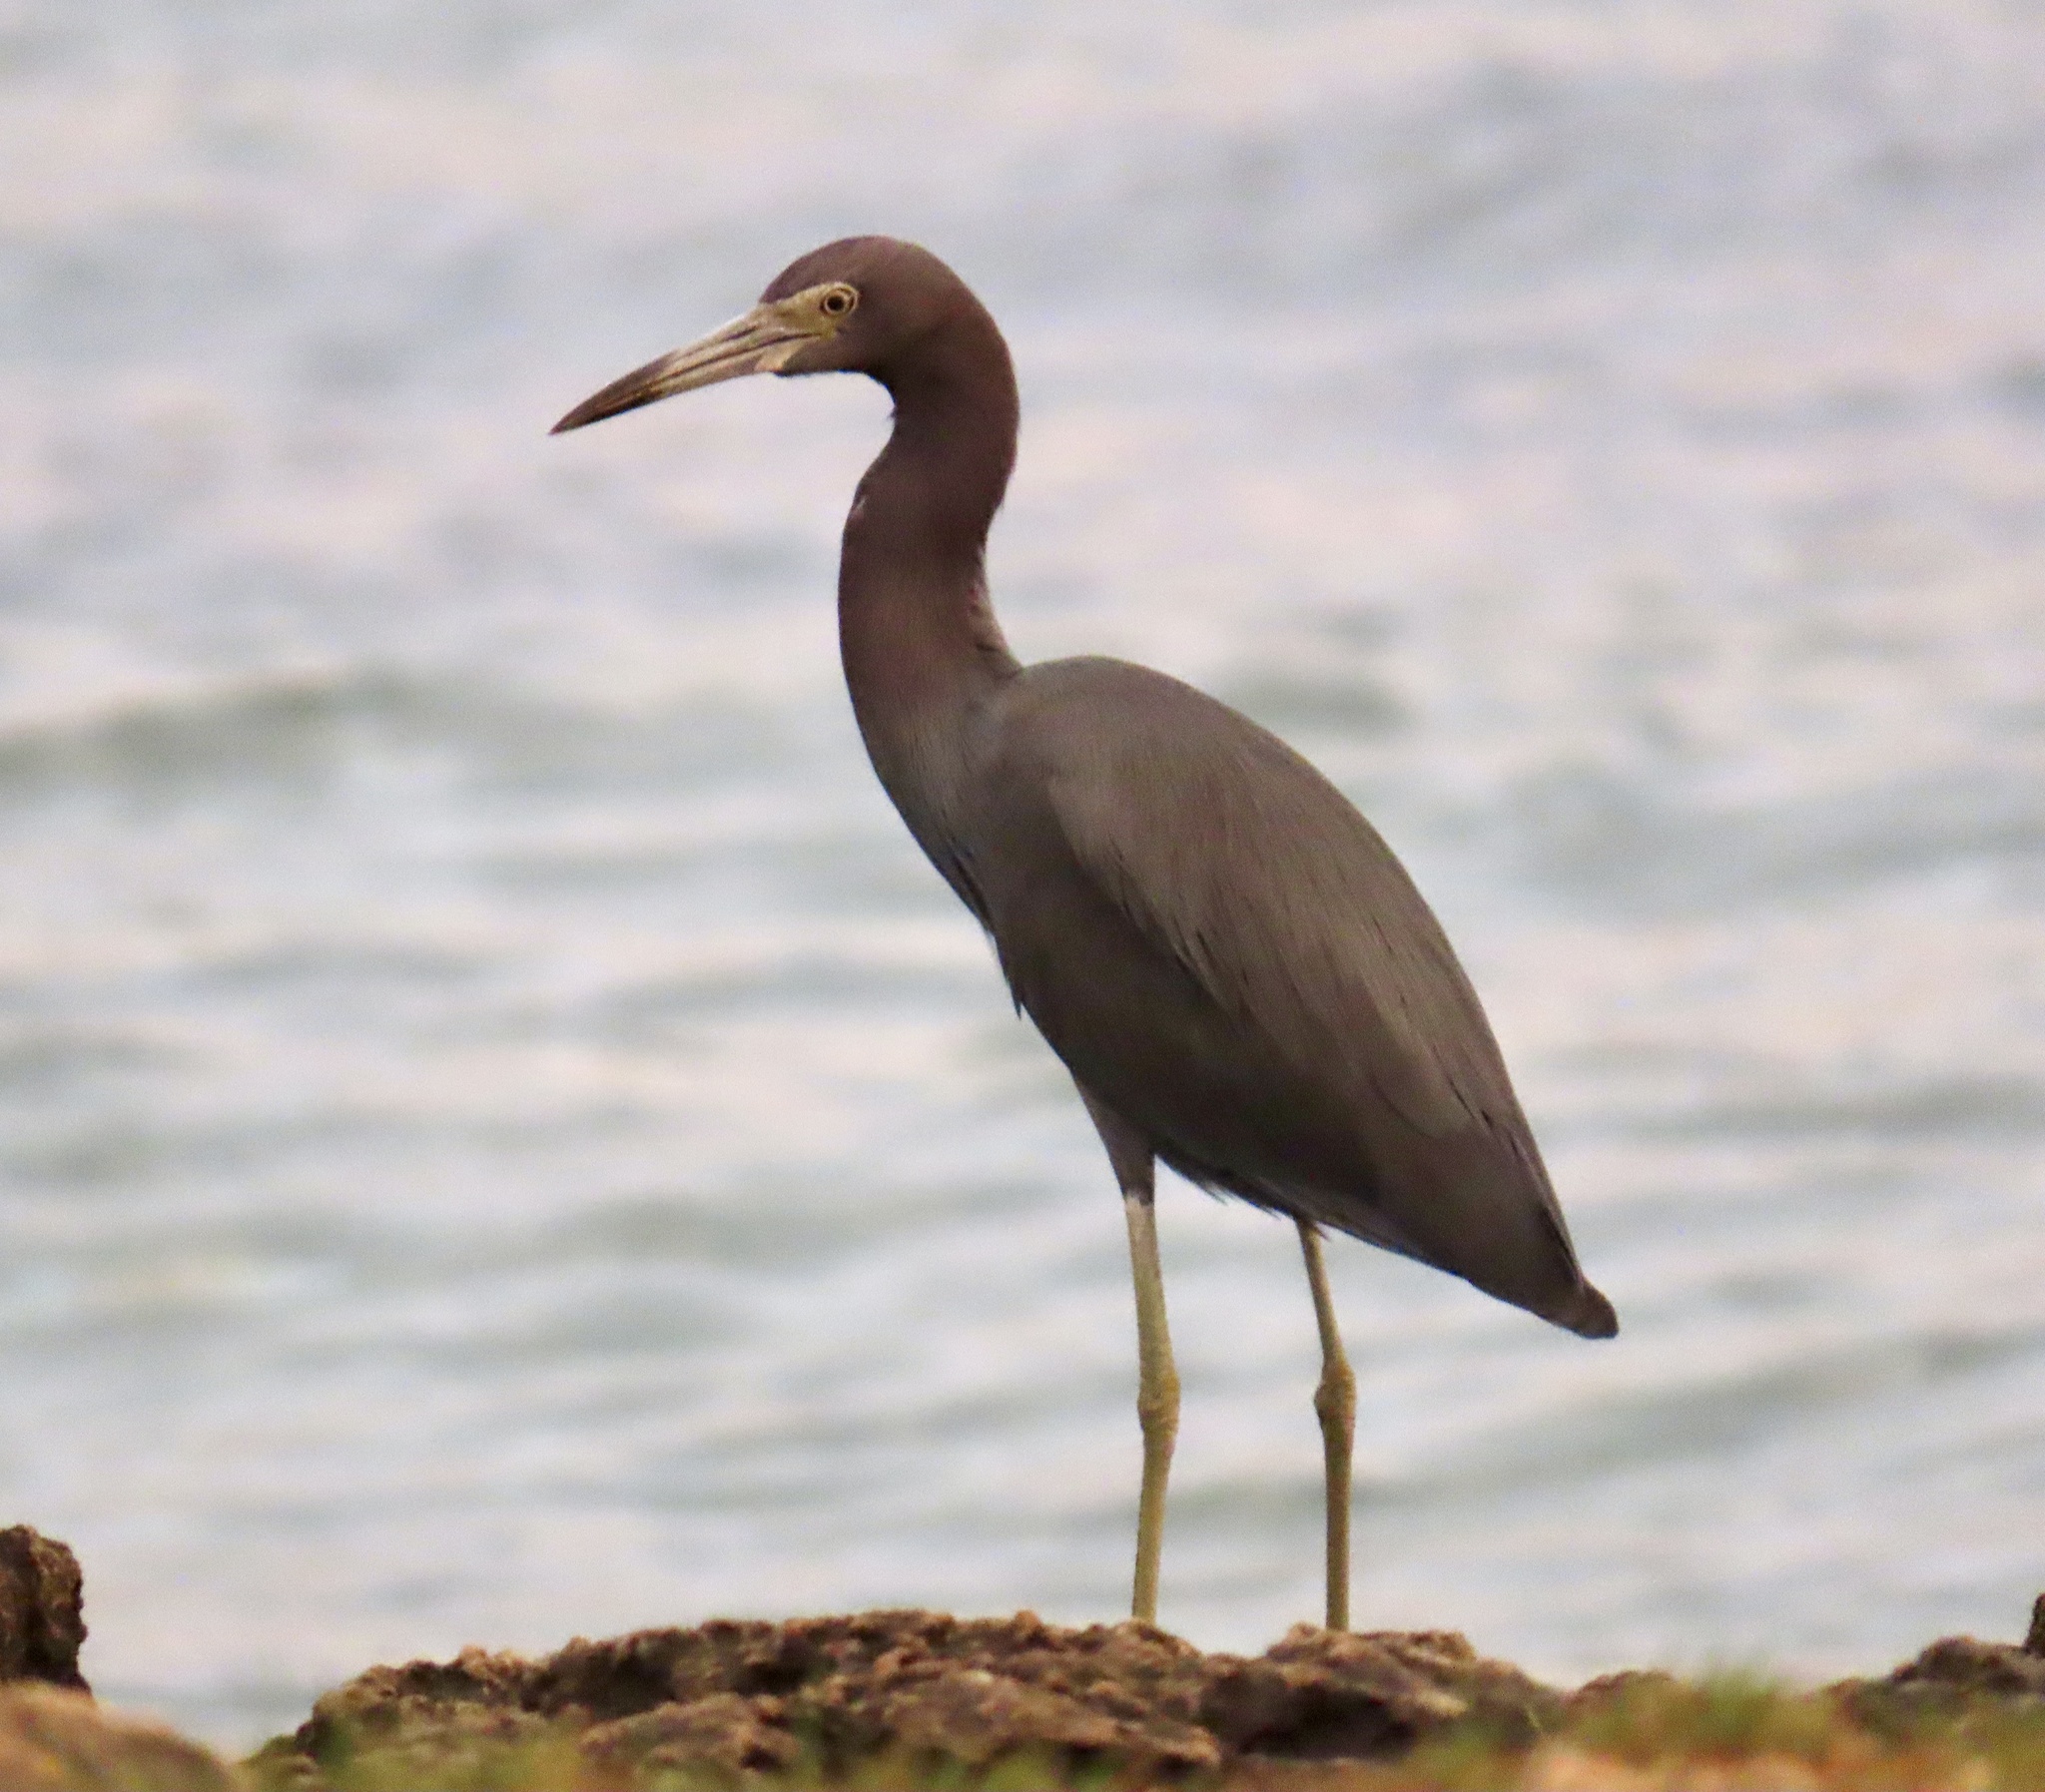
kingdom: Animalia
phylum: Chordata
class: Aves
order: Pelecaniformes
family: Ardeidae
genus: Egretta
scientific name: Egretta caerulea
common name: Little blue heron
